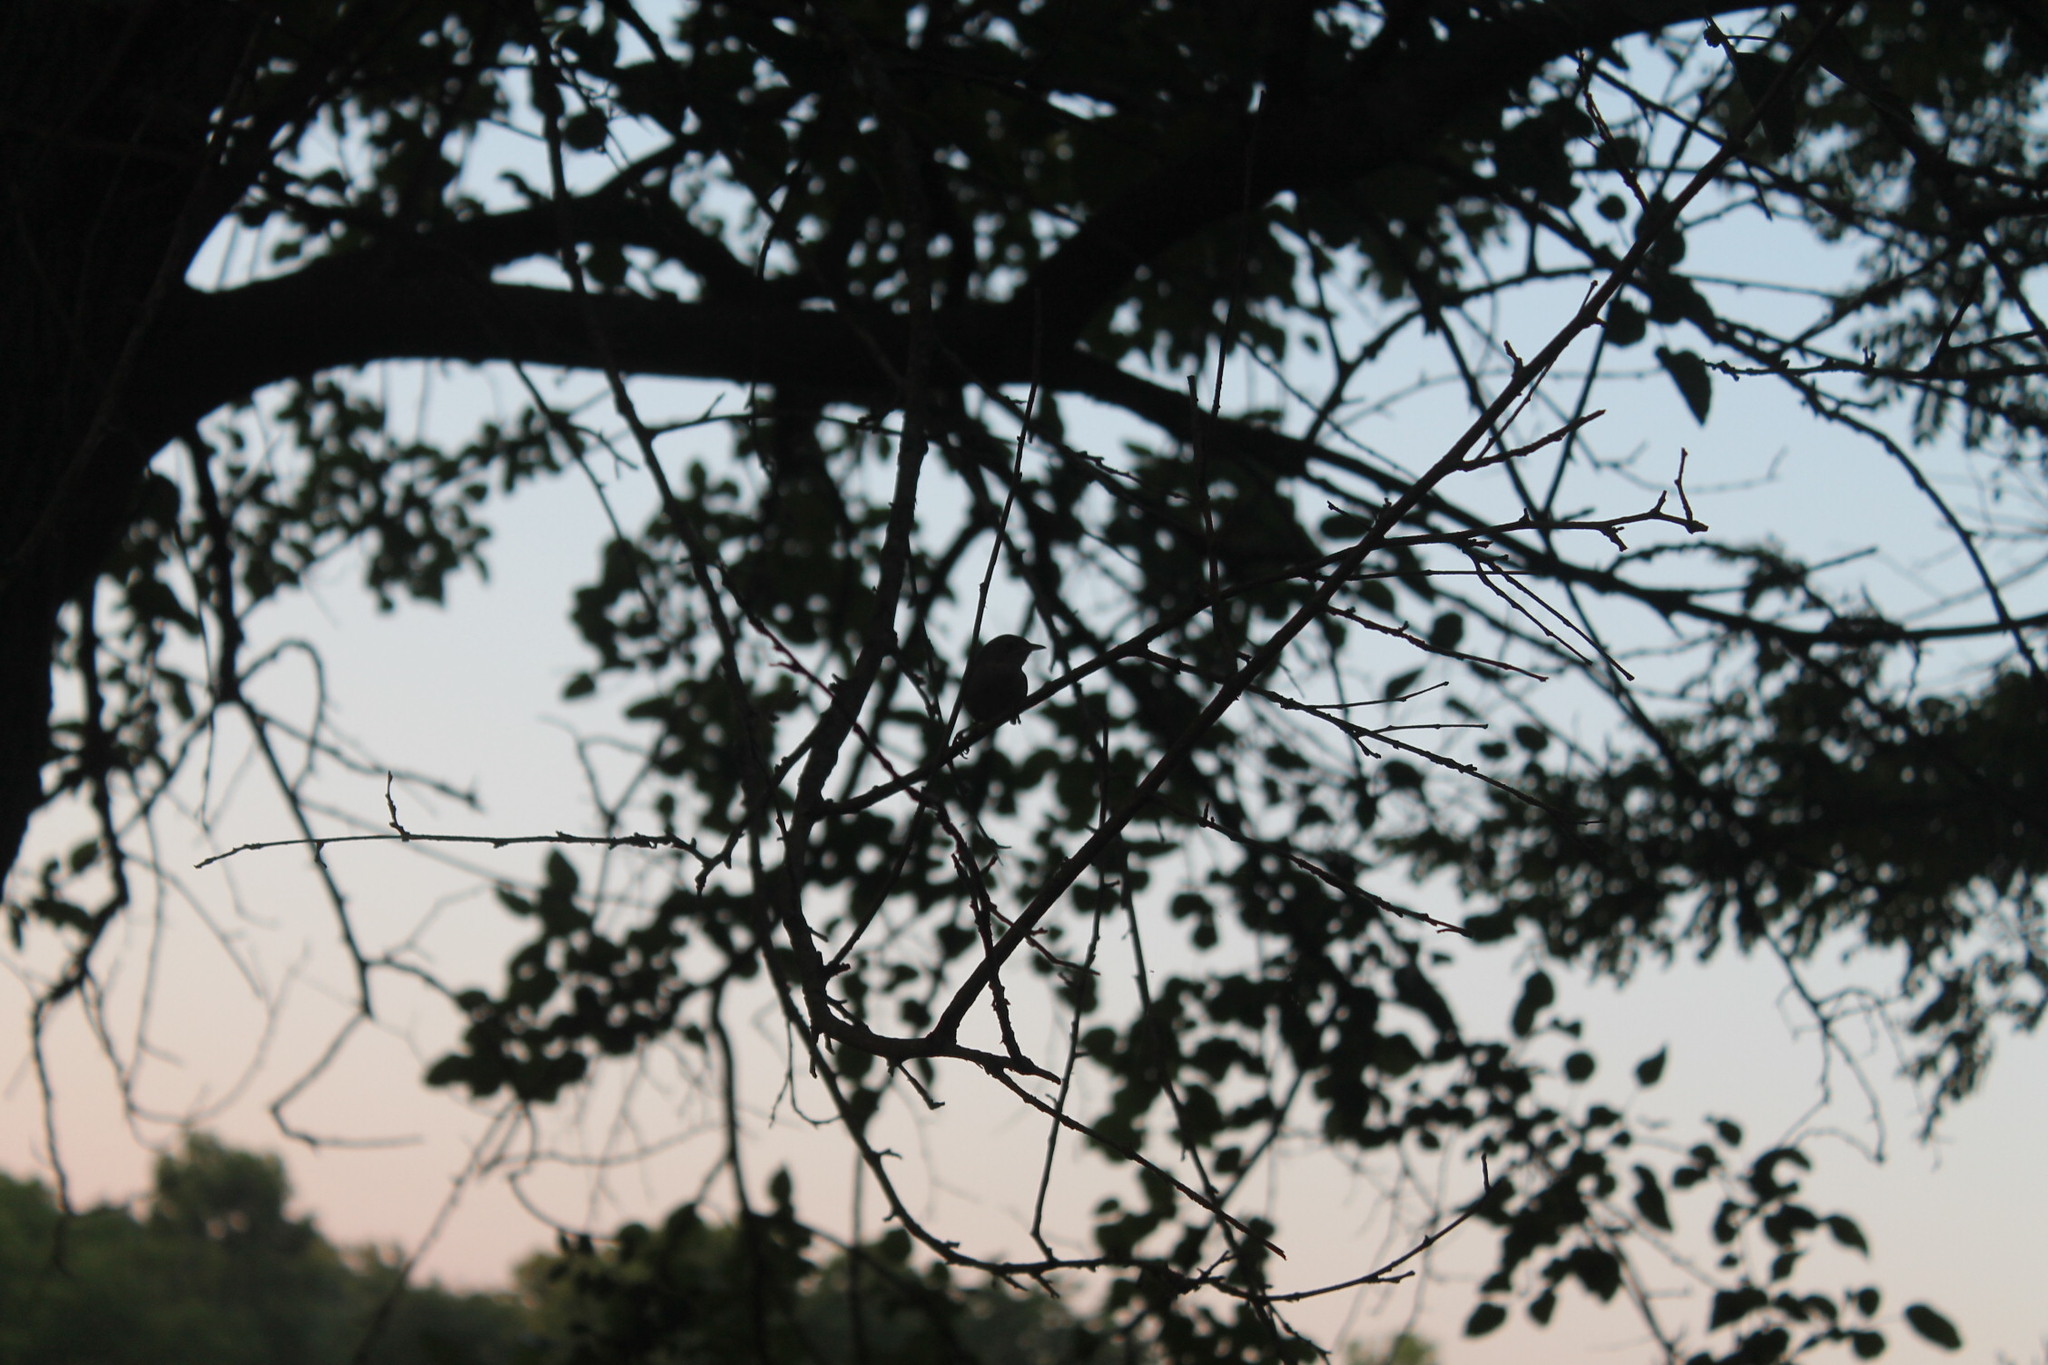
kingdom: Animalia
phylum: Chordata
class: Aves
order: Passeriformes
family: Troglodytidae
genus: Troglodytes
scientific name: Troglodytes aedon
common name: House wren
